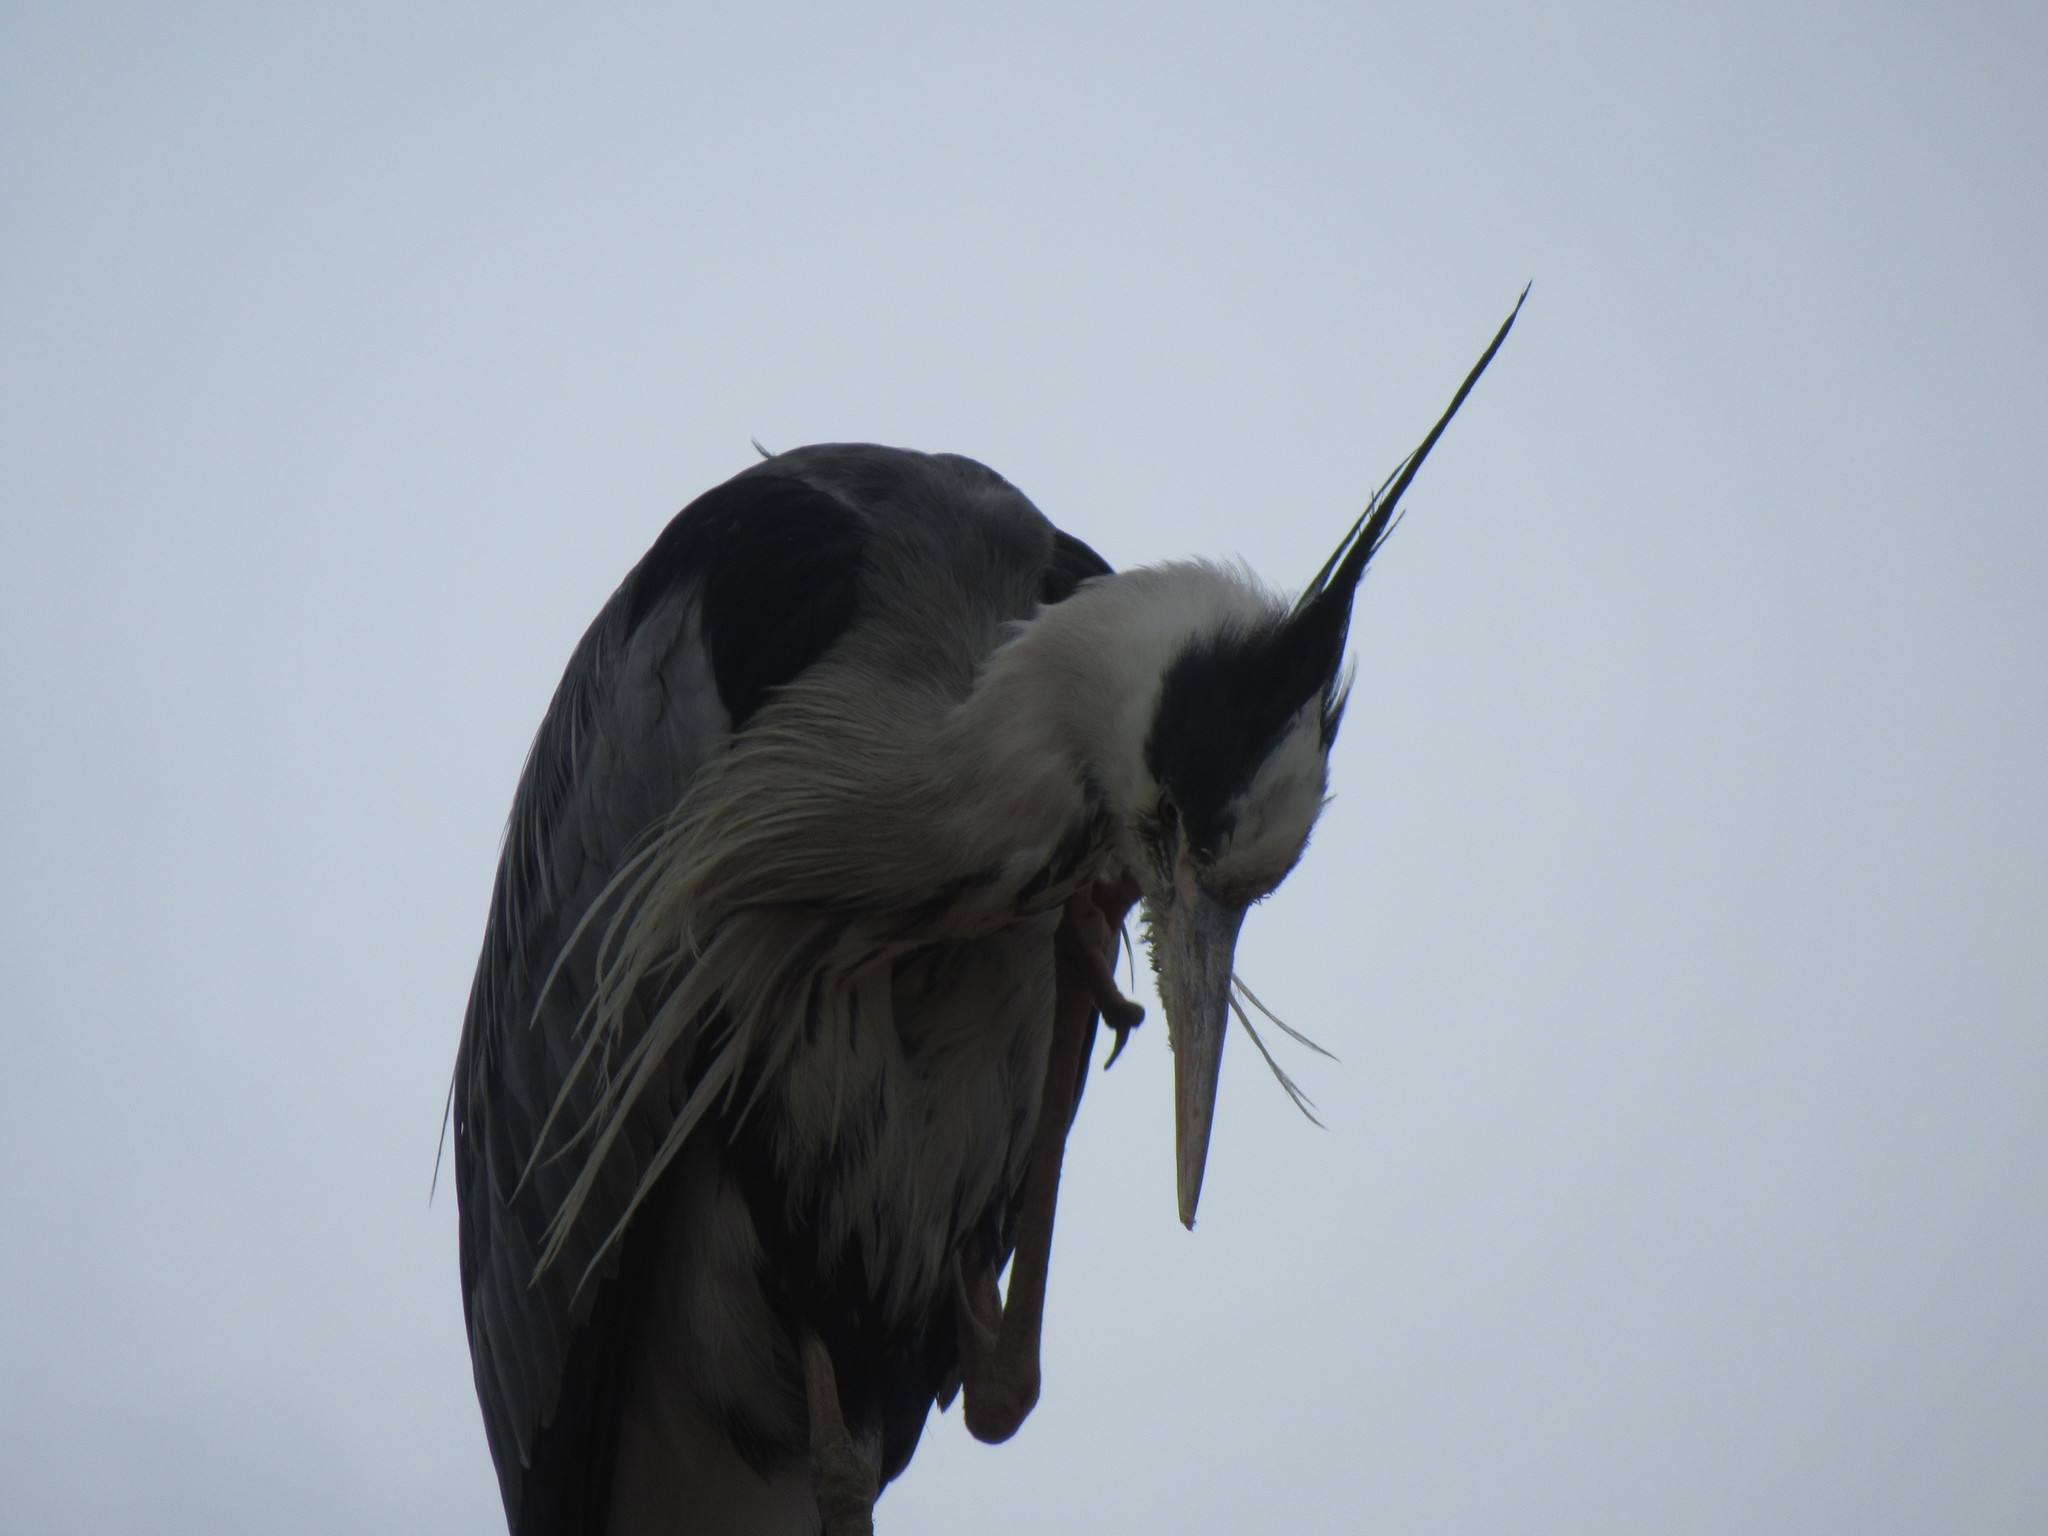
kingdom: Animalia
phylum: Chordata
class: Aves
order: Pelecaniformes
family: Ardeidae
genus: Ardea
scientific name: Ardea cinerea
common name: Grey heron
